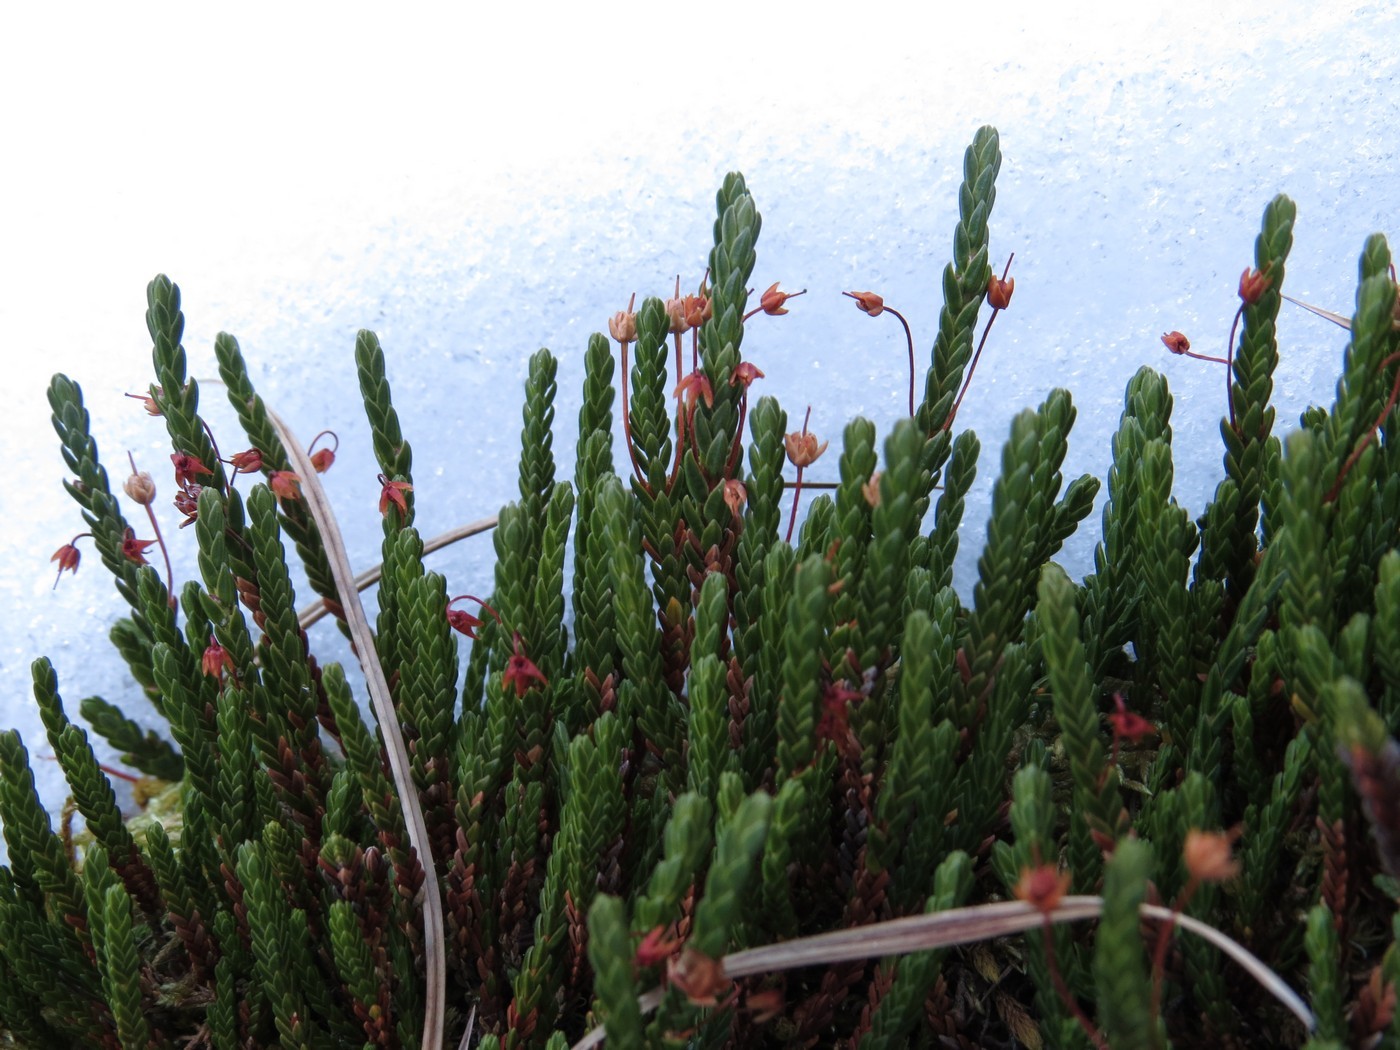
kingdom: Plantae
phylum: Tracheophyta
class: Magnoliopsida
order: Ericales
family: Ericaceae
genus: Cassiope
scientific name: Cassiope tetragona
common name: Arctic bell heather
